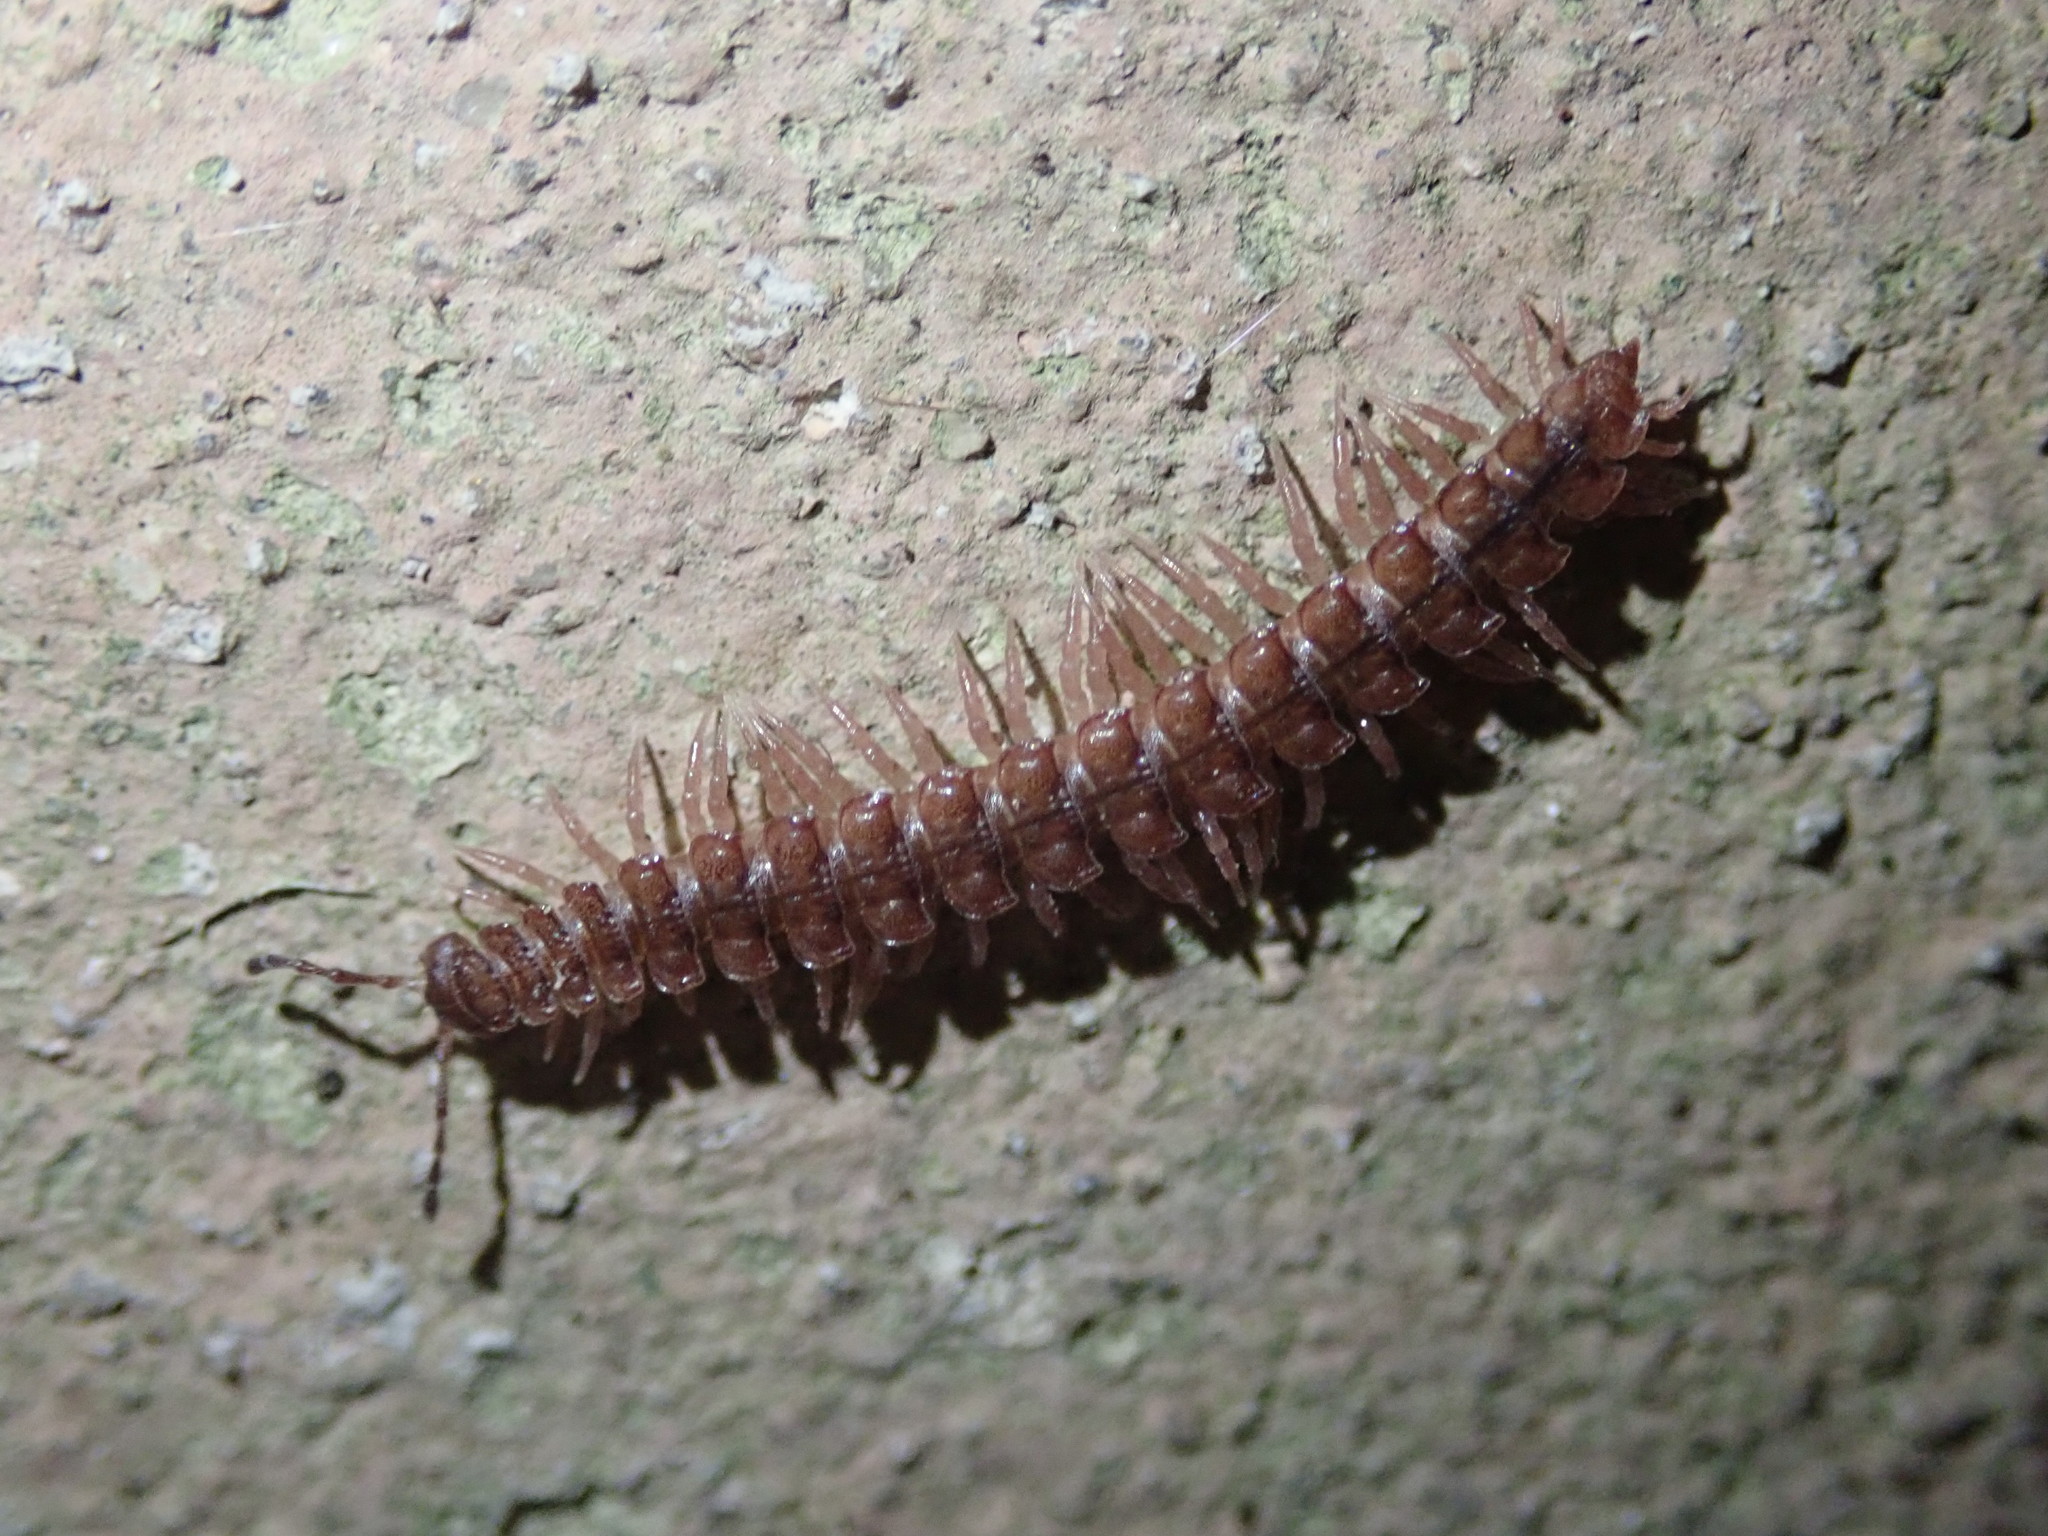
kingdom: Animalia
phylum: Arthropoda
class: Diplopoda
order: Polydesmida
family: Polydesmidae
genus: Polydesmus
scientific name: Polydesmus testaceus
